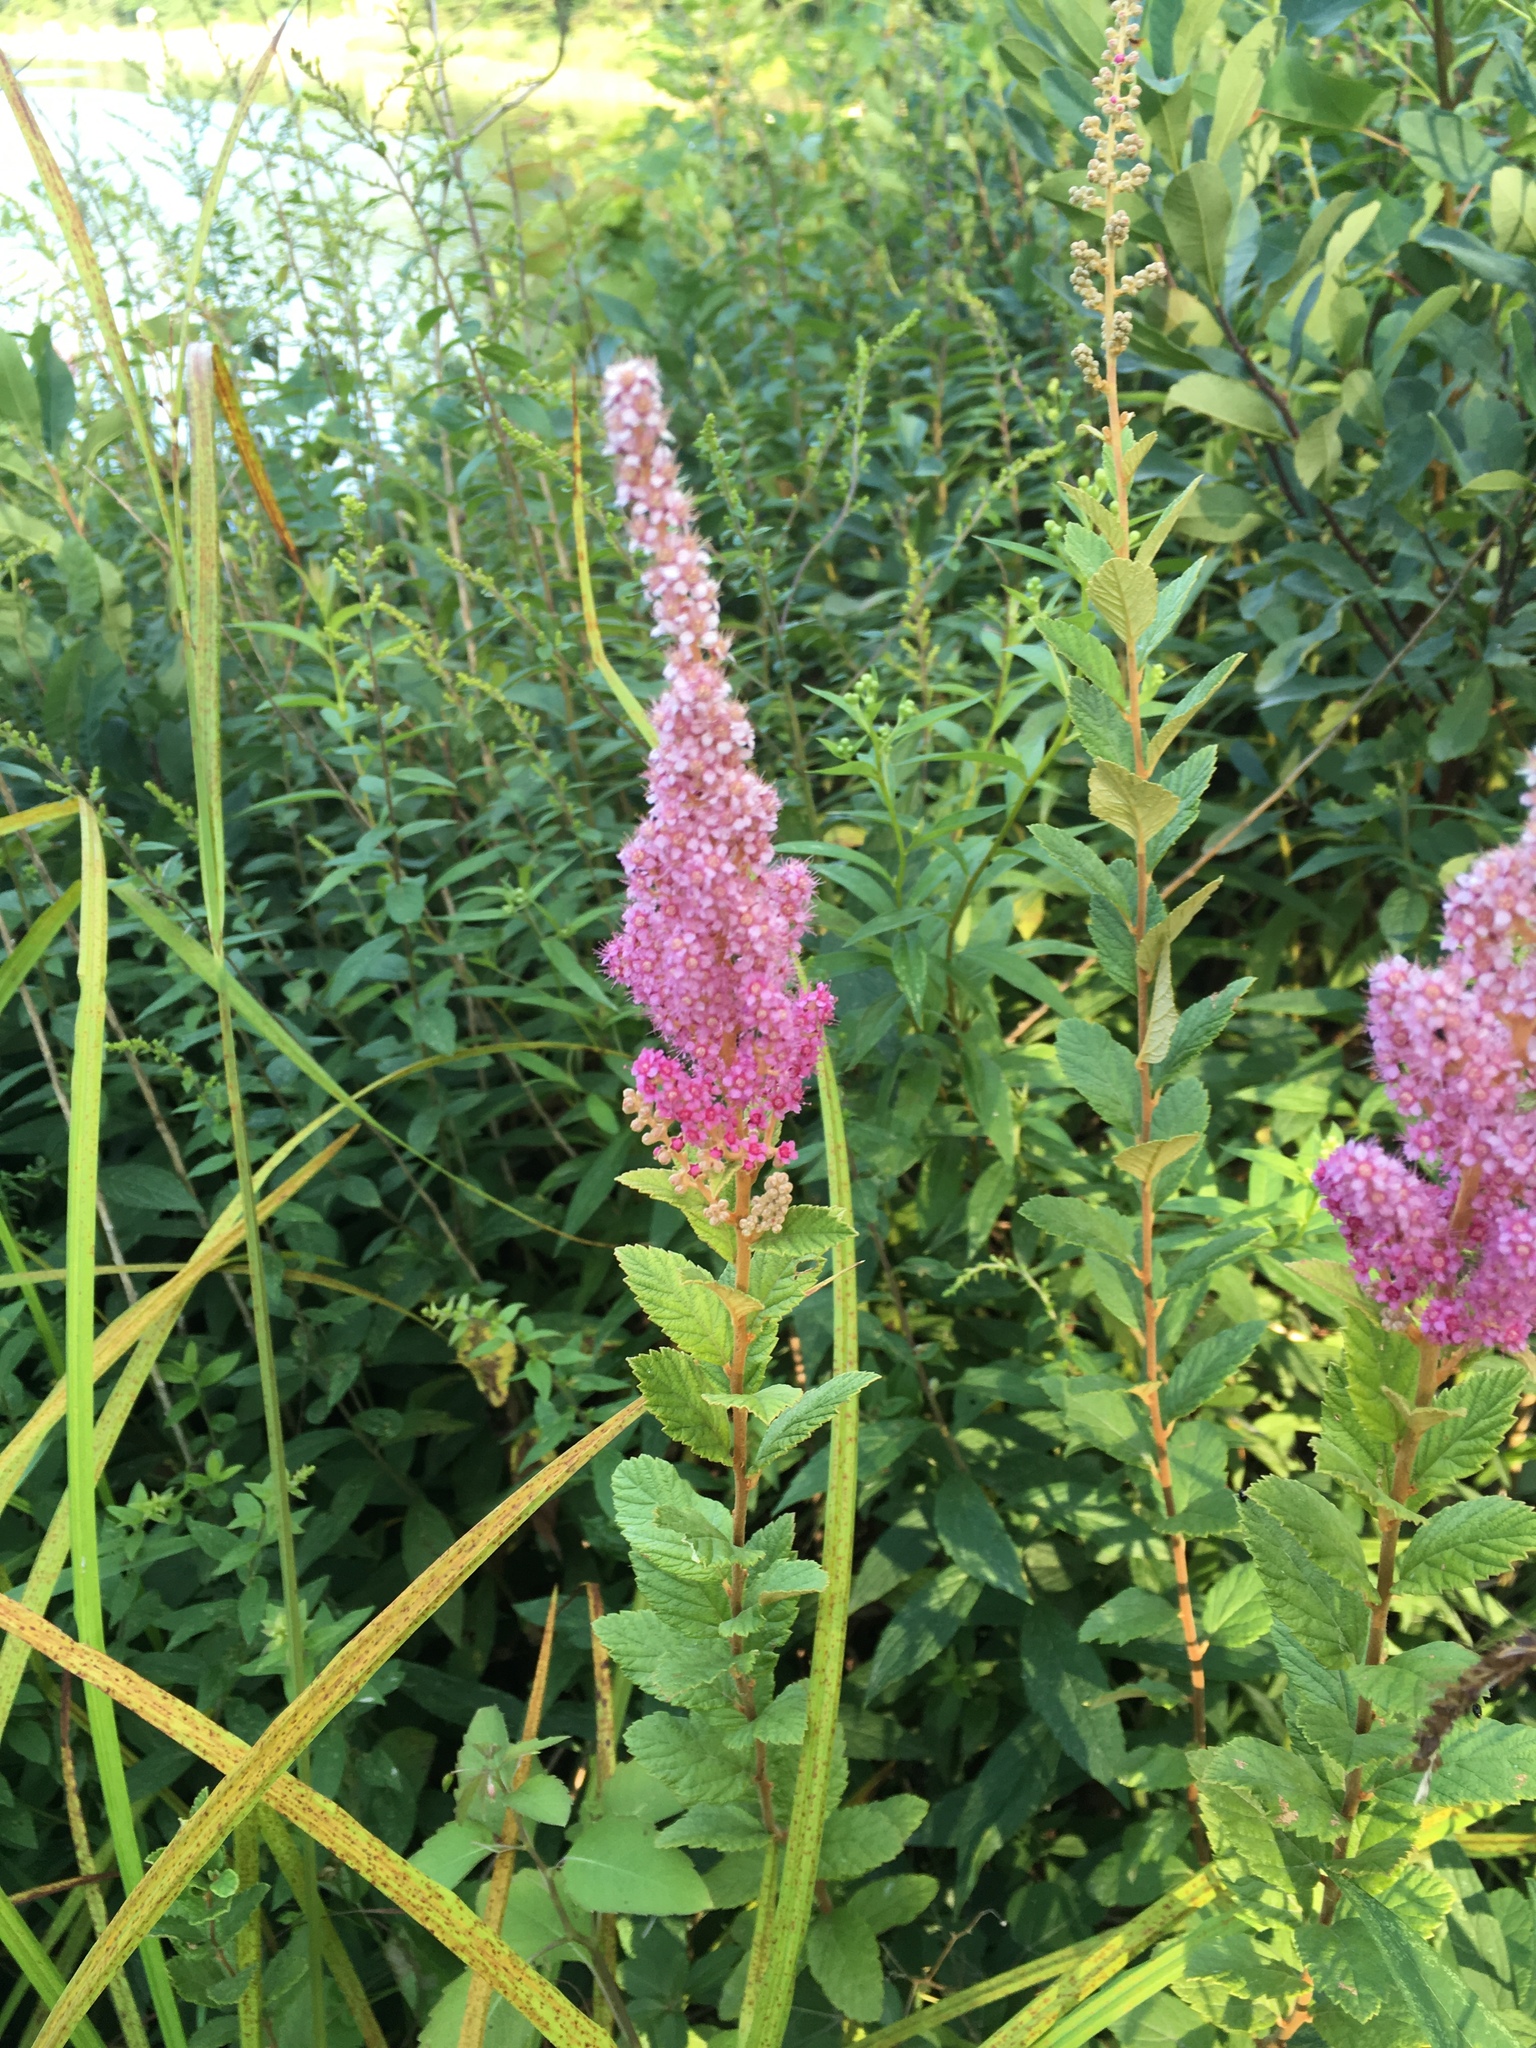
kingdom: Plantae
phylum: Tracheophyta
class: Magnoliopsida
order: Rosales
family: Rosaceae
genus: Spiraea
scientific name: Spiraea tomentosa
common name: Hardhack
